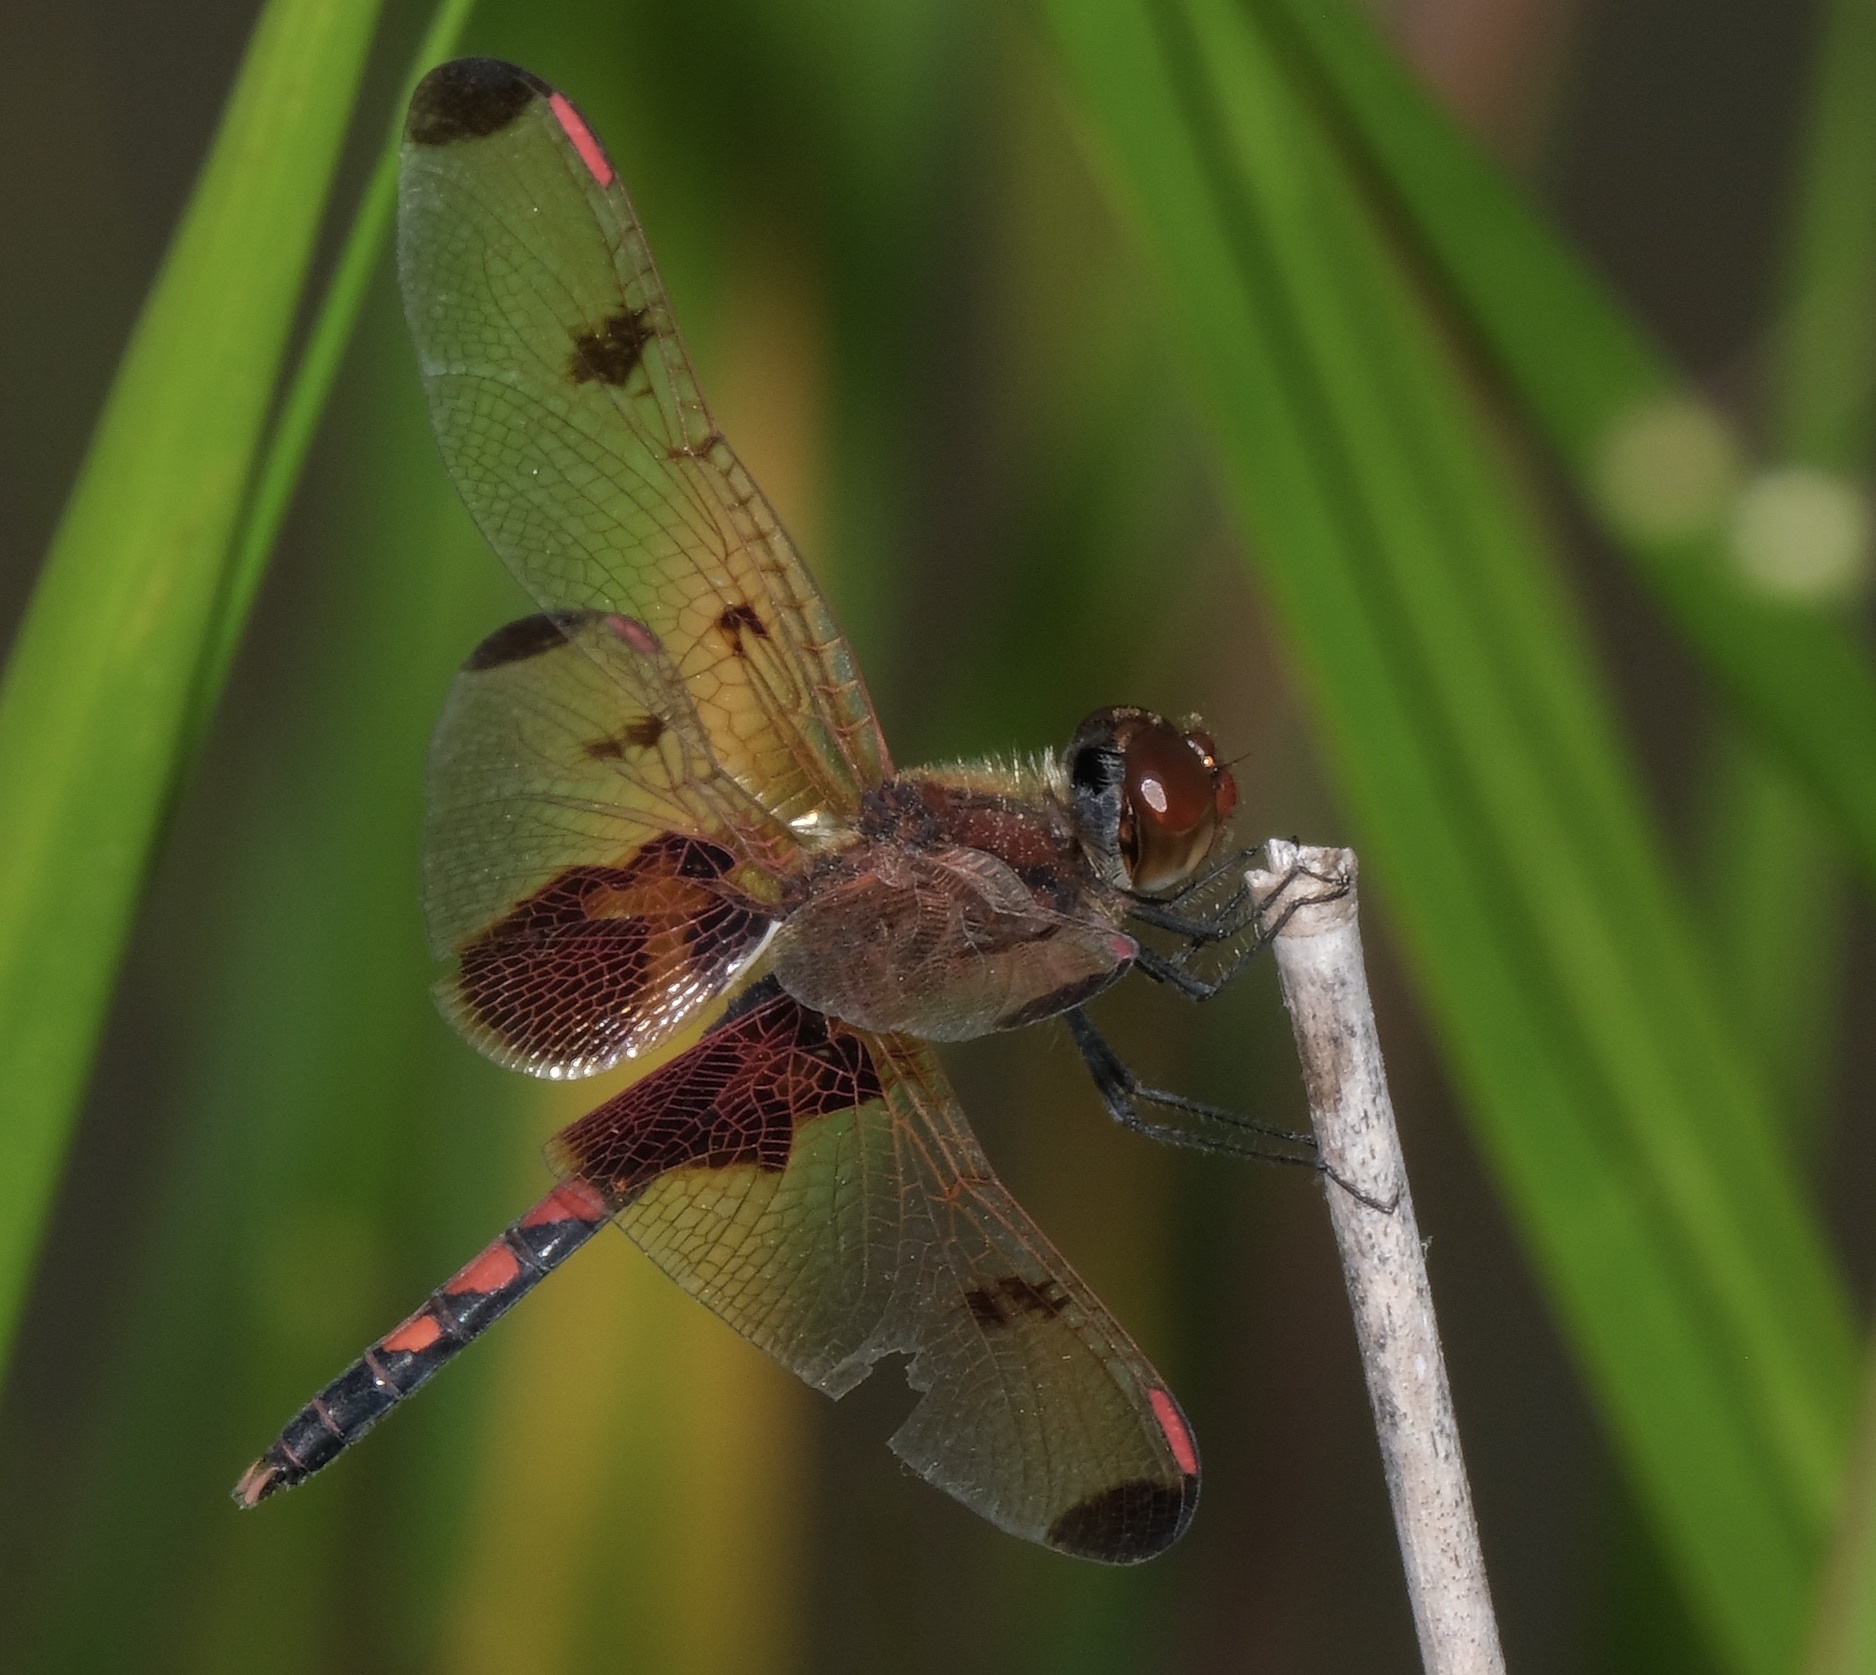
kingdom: Animalia
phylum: Arthropoda
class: Insecta
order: Odonata
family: Libellulidae
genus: Celithemis
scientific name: Celithemis elisa
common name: Calico pennant
